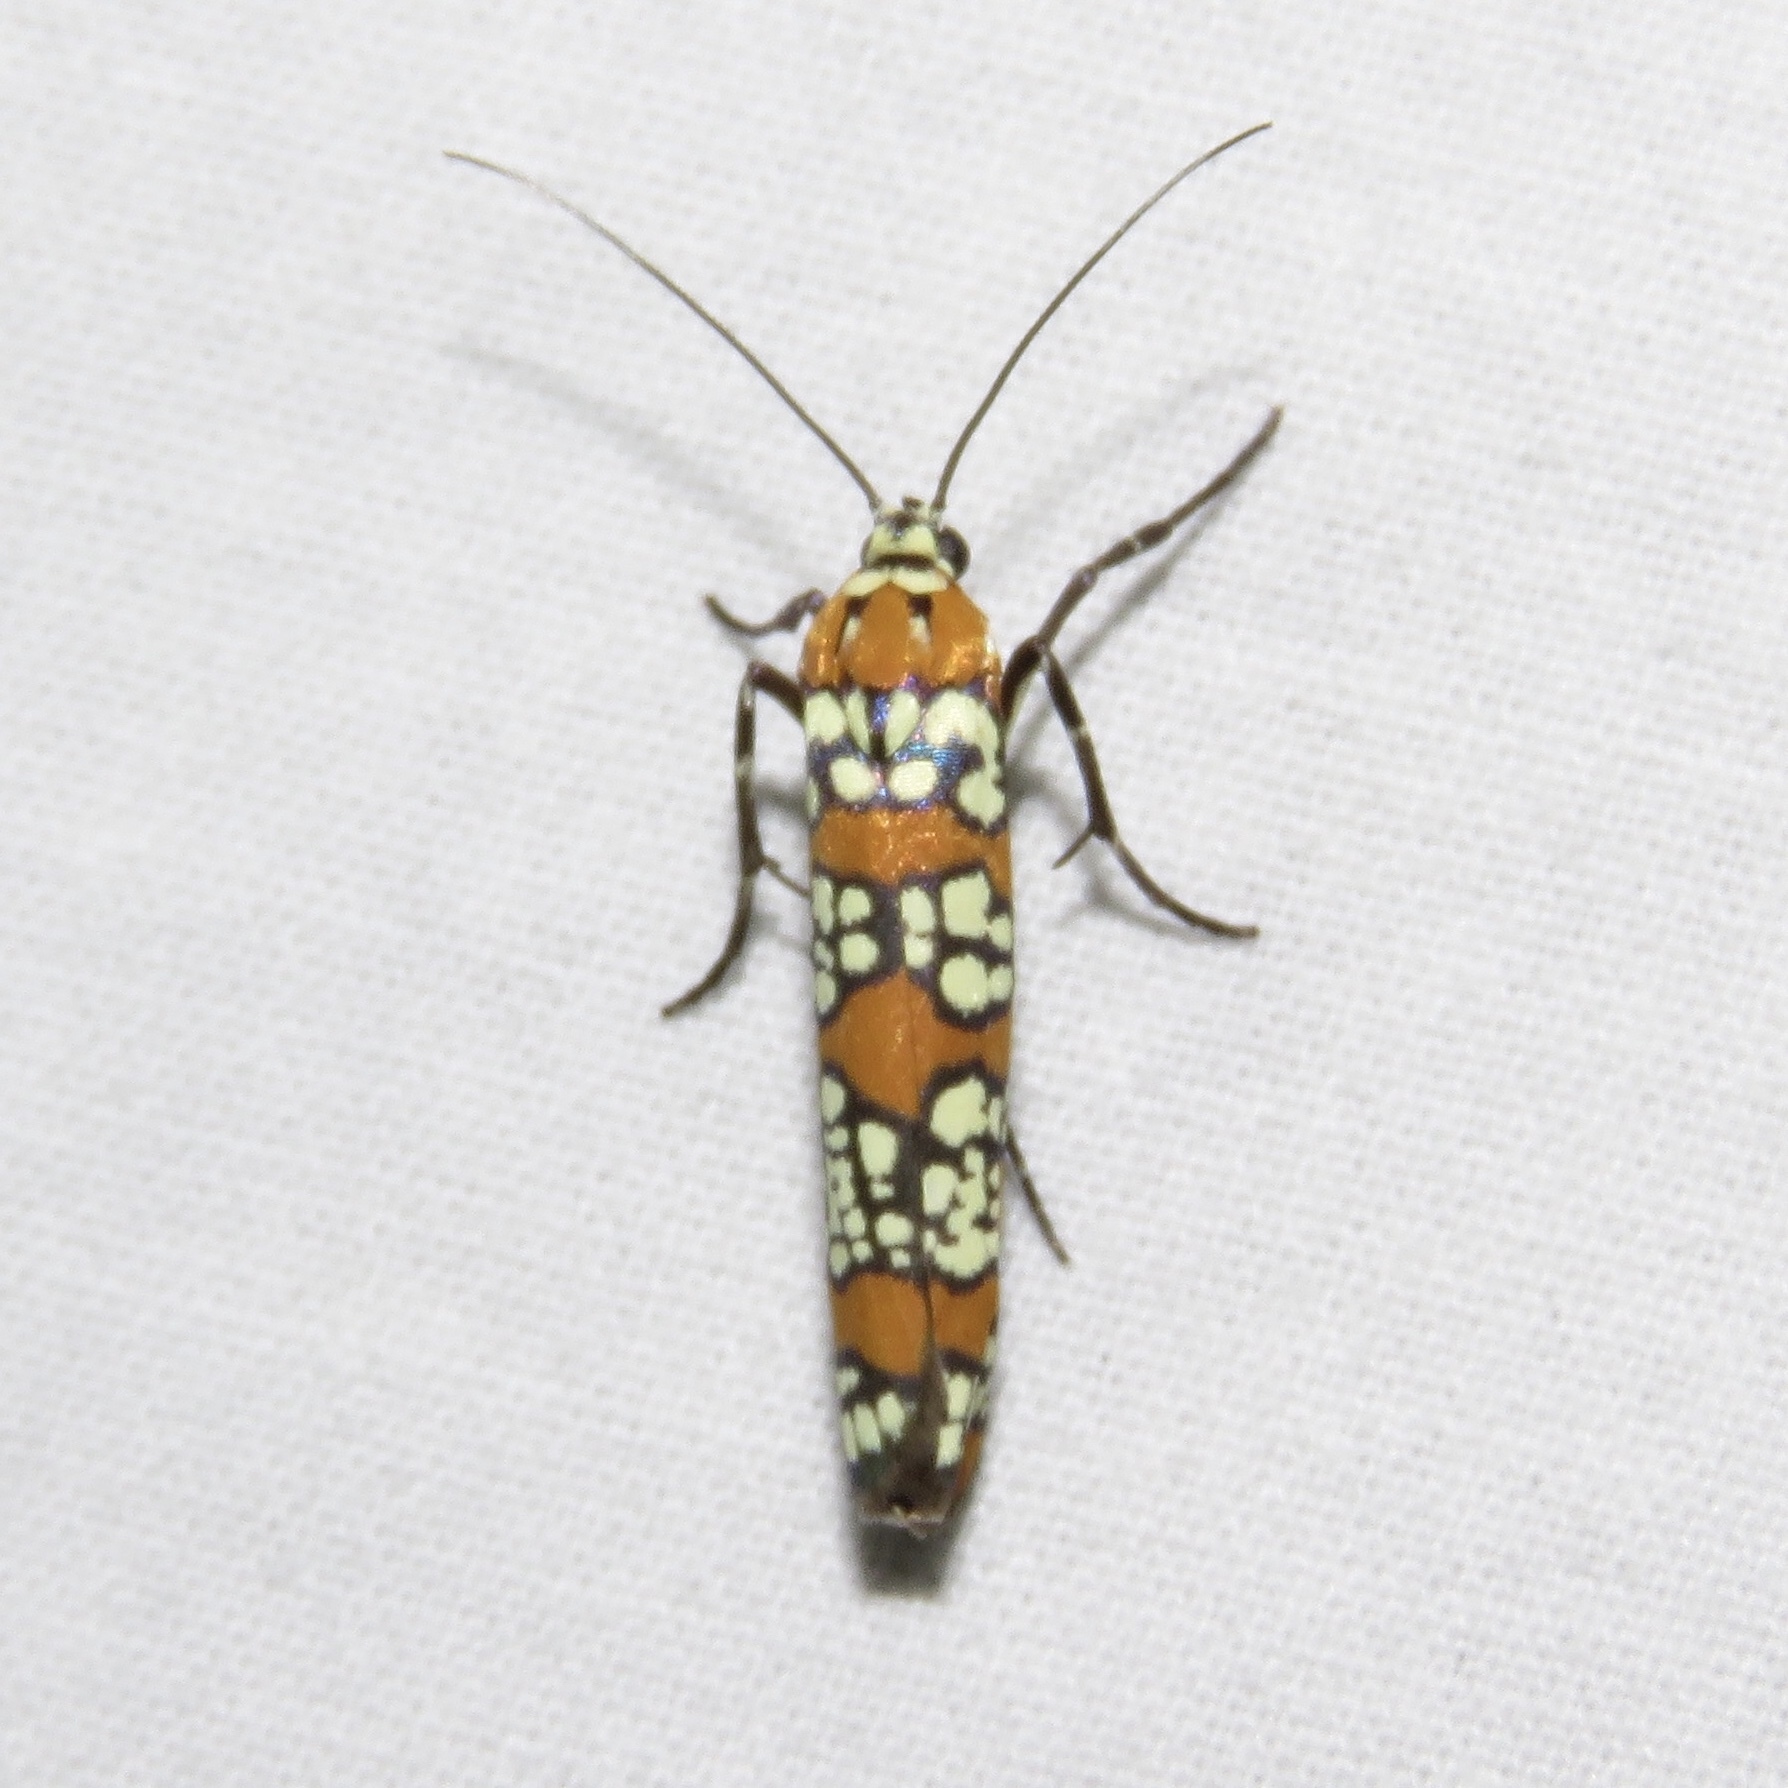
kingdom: Animalia
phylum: Arthropoda
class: Insecta
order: Lepidoptera
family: Attevidae
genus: Atteva
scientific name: Atteva punctella
